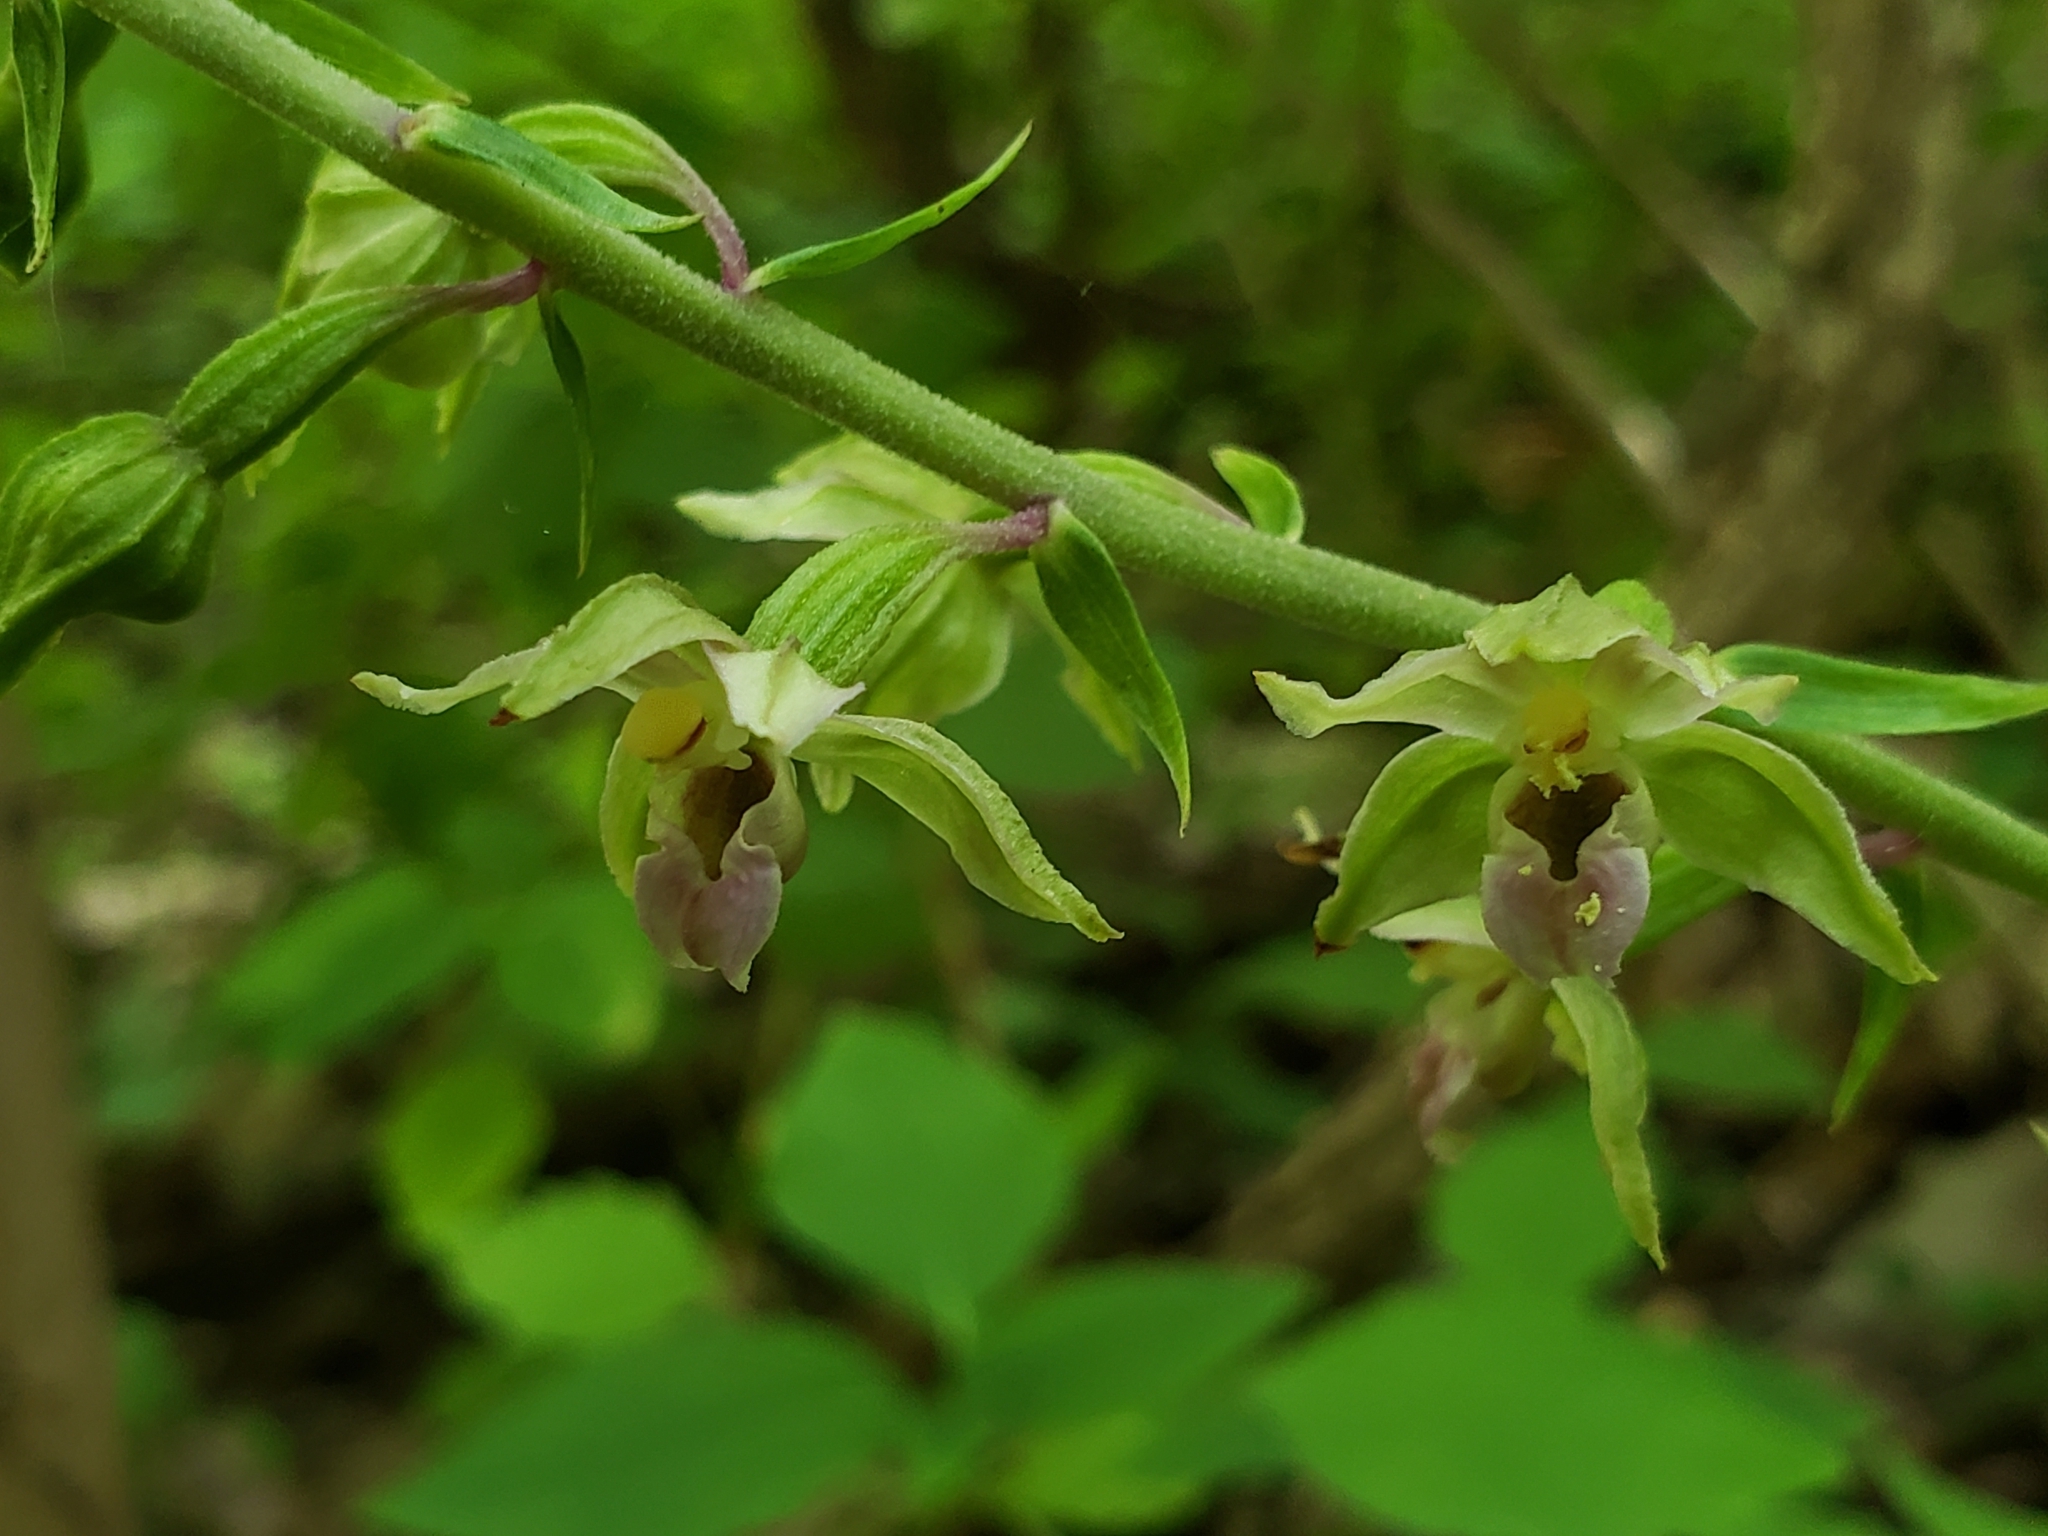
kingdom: Plantae
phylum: Tracheophyta
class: Liliopsida
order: Asparagales
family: Orchidaceae
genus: Epipactis
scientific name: Epipactis helleborine
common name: Broad-leaved helleborine
